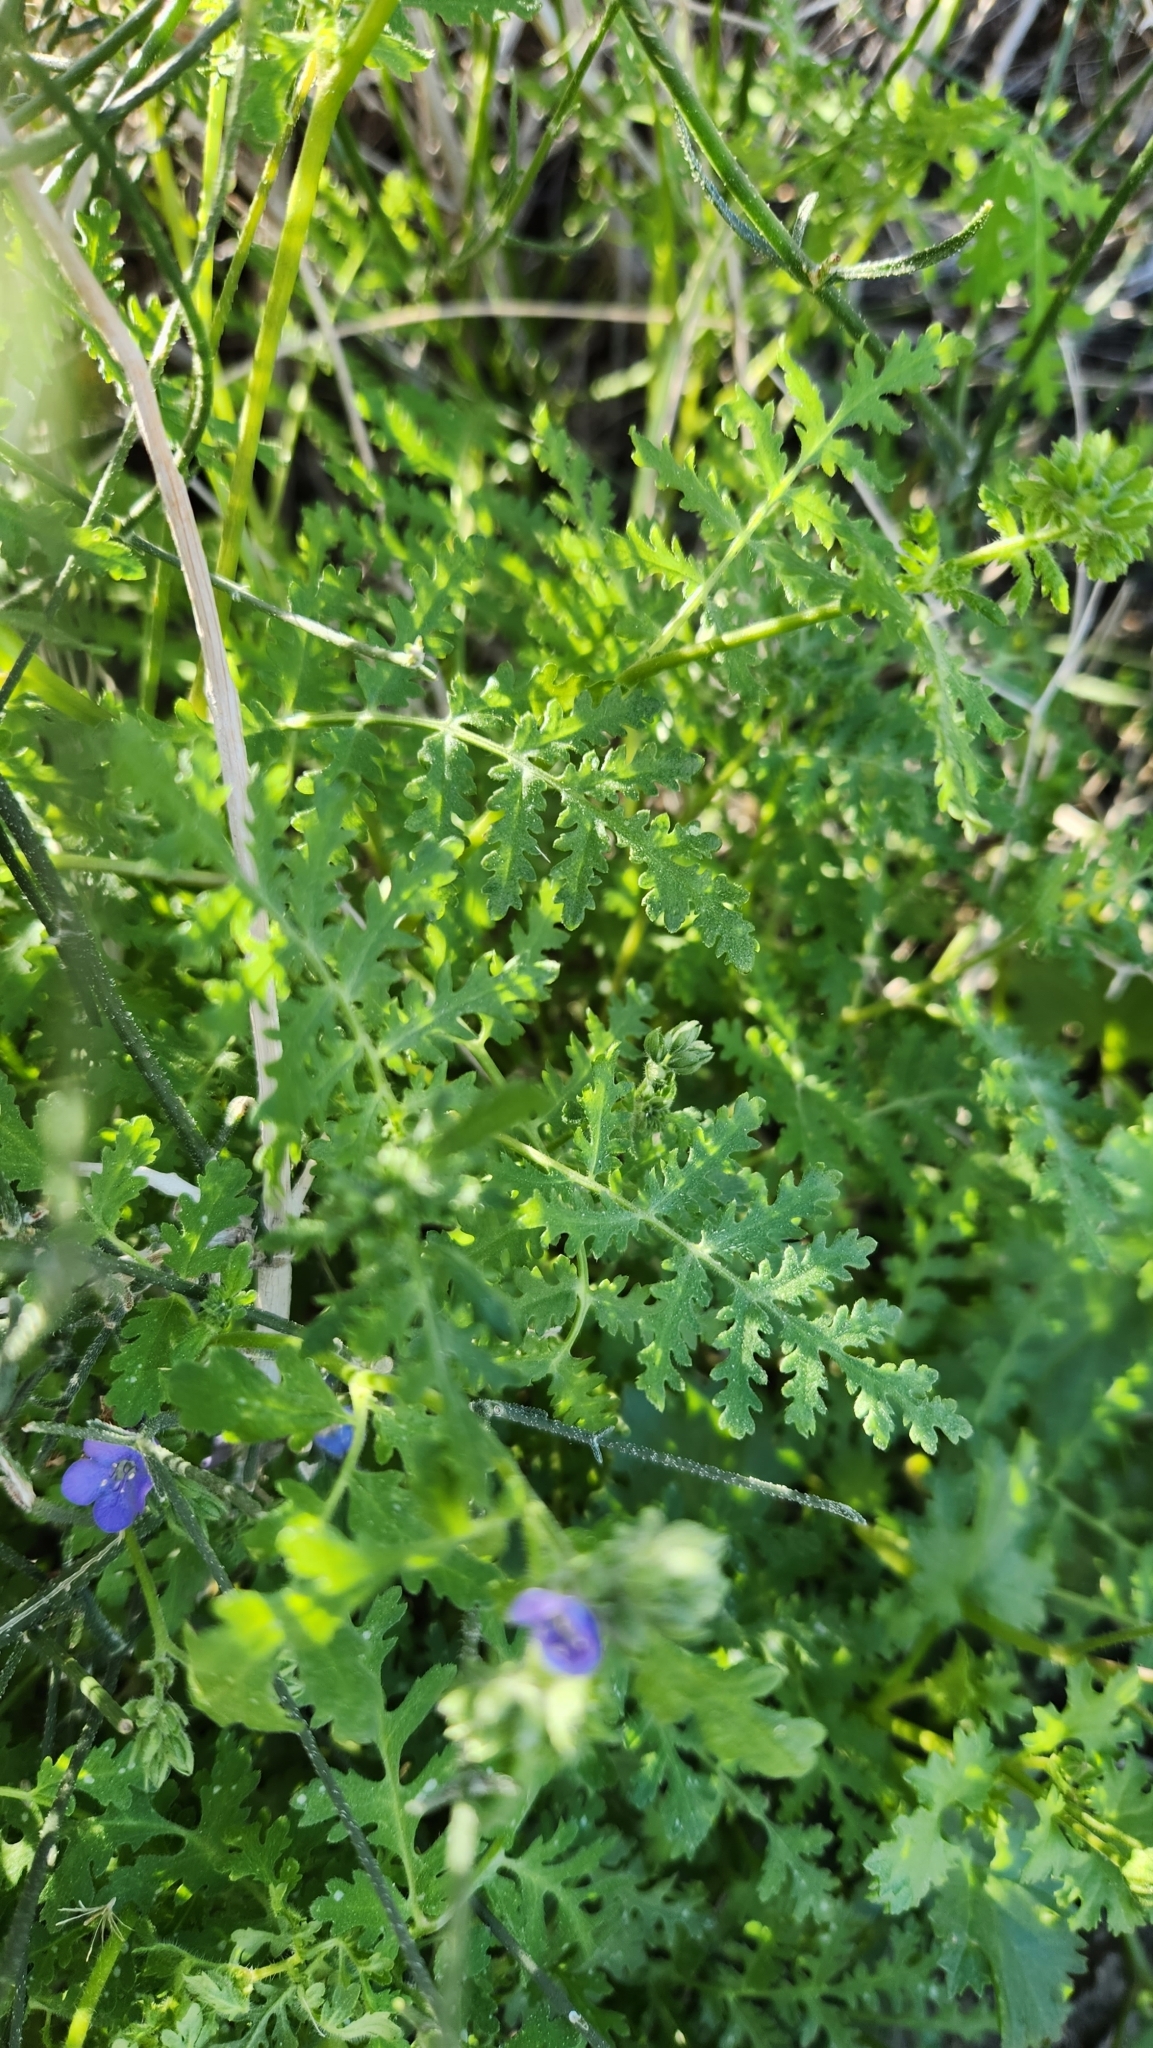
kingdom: Plantae
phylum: Tracheophyta
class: Magnoliopsida
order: Boraginales
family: Hydrophyllaceae
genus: Phacelia
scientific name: Phacelia distans
